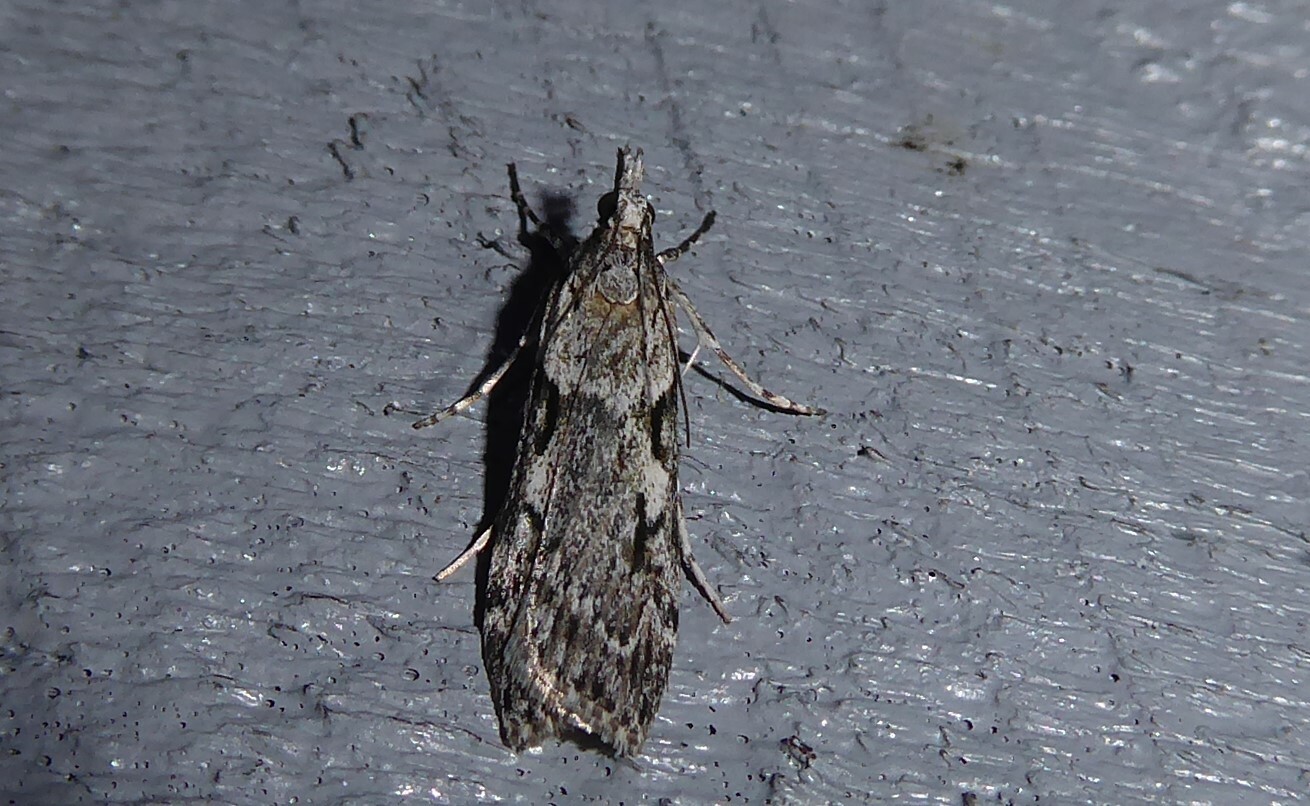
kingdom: Animalia
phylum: Arthropoda
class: Insecta
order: Lepidoptera
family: Crambidae
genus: Scoparia
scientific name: Scoparia halopis
